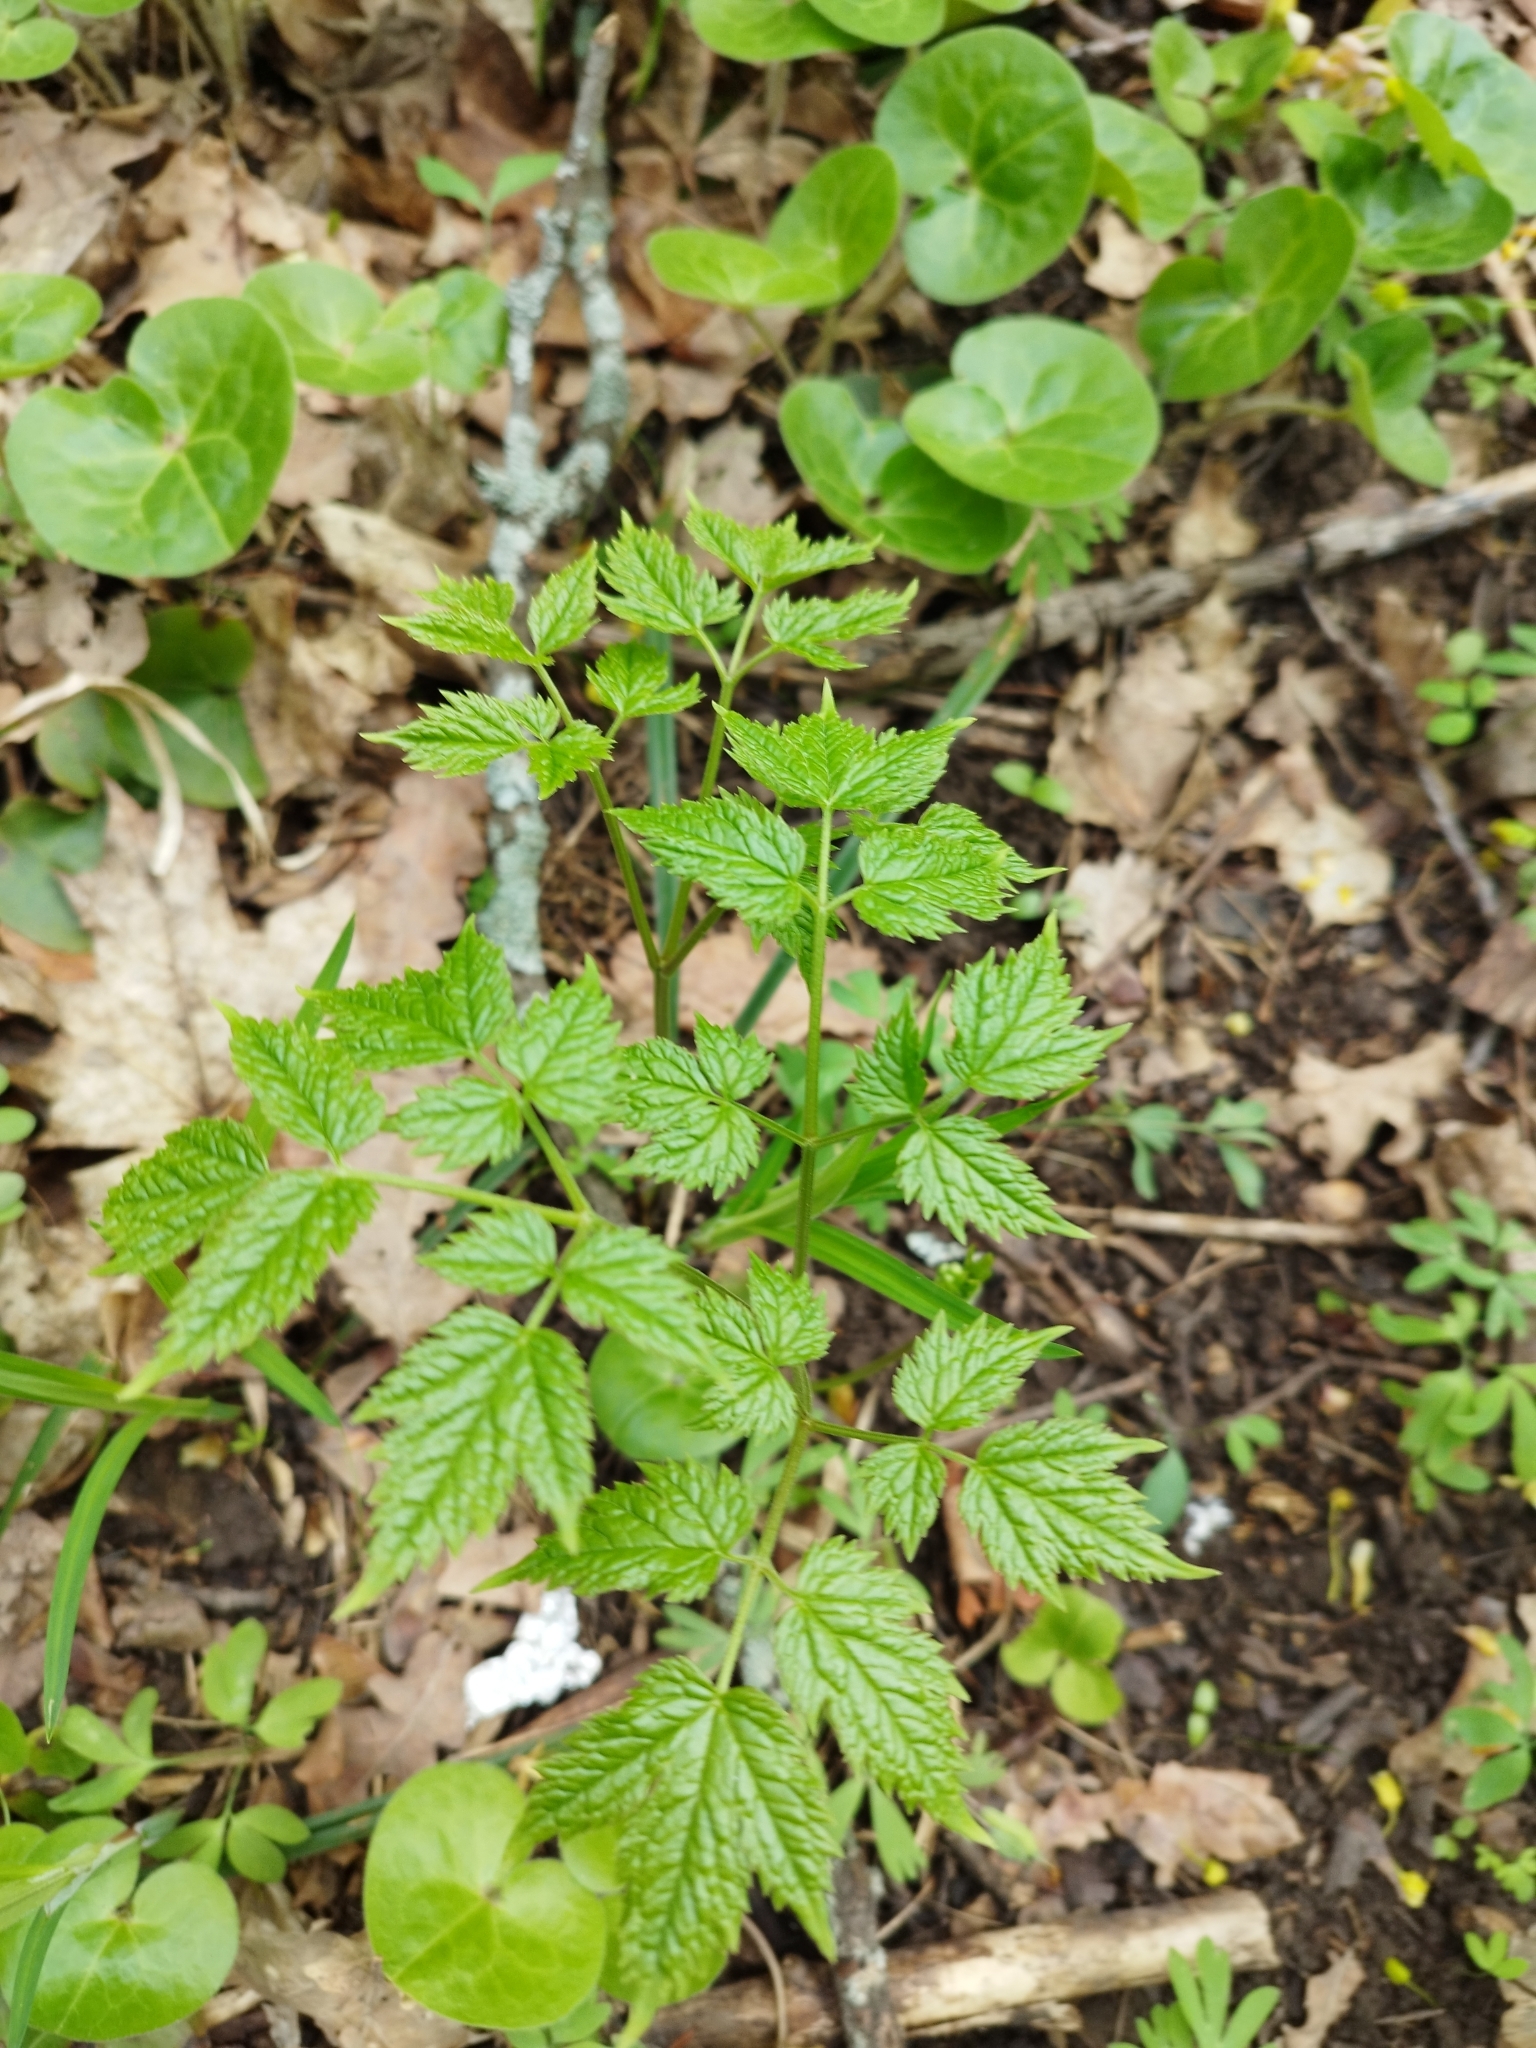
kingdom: Plantae
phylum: Tracheophyta
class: Magnoliopsida
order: Ranunculales
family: Ranunculaceae
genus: Actaea
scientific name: Actaea spicata
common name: Baneberry
